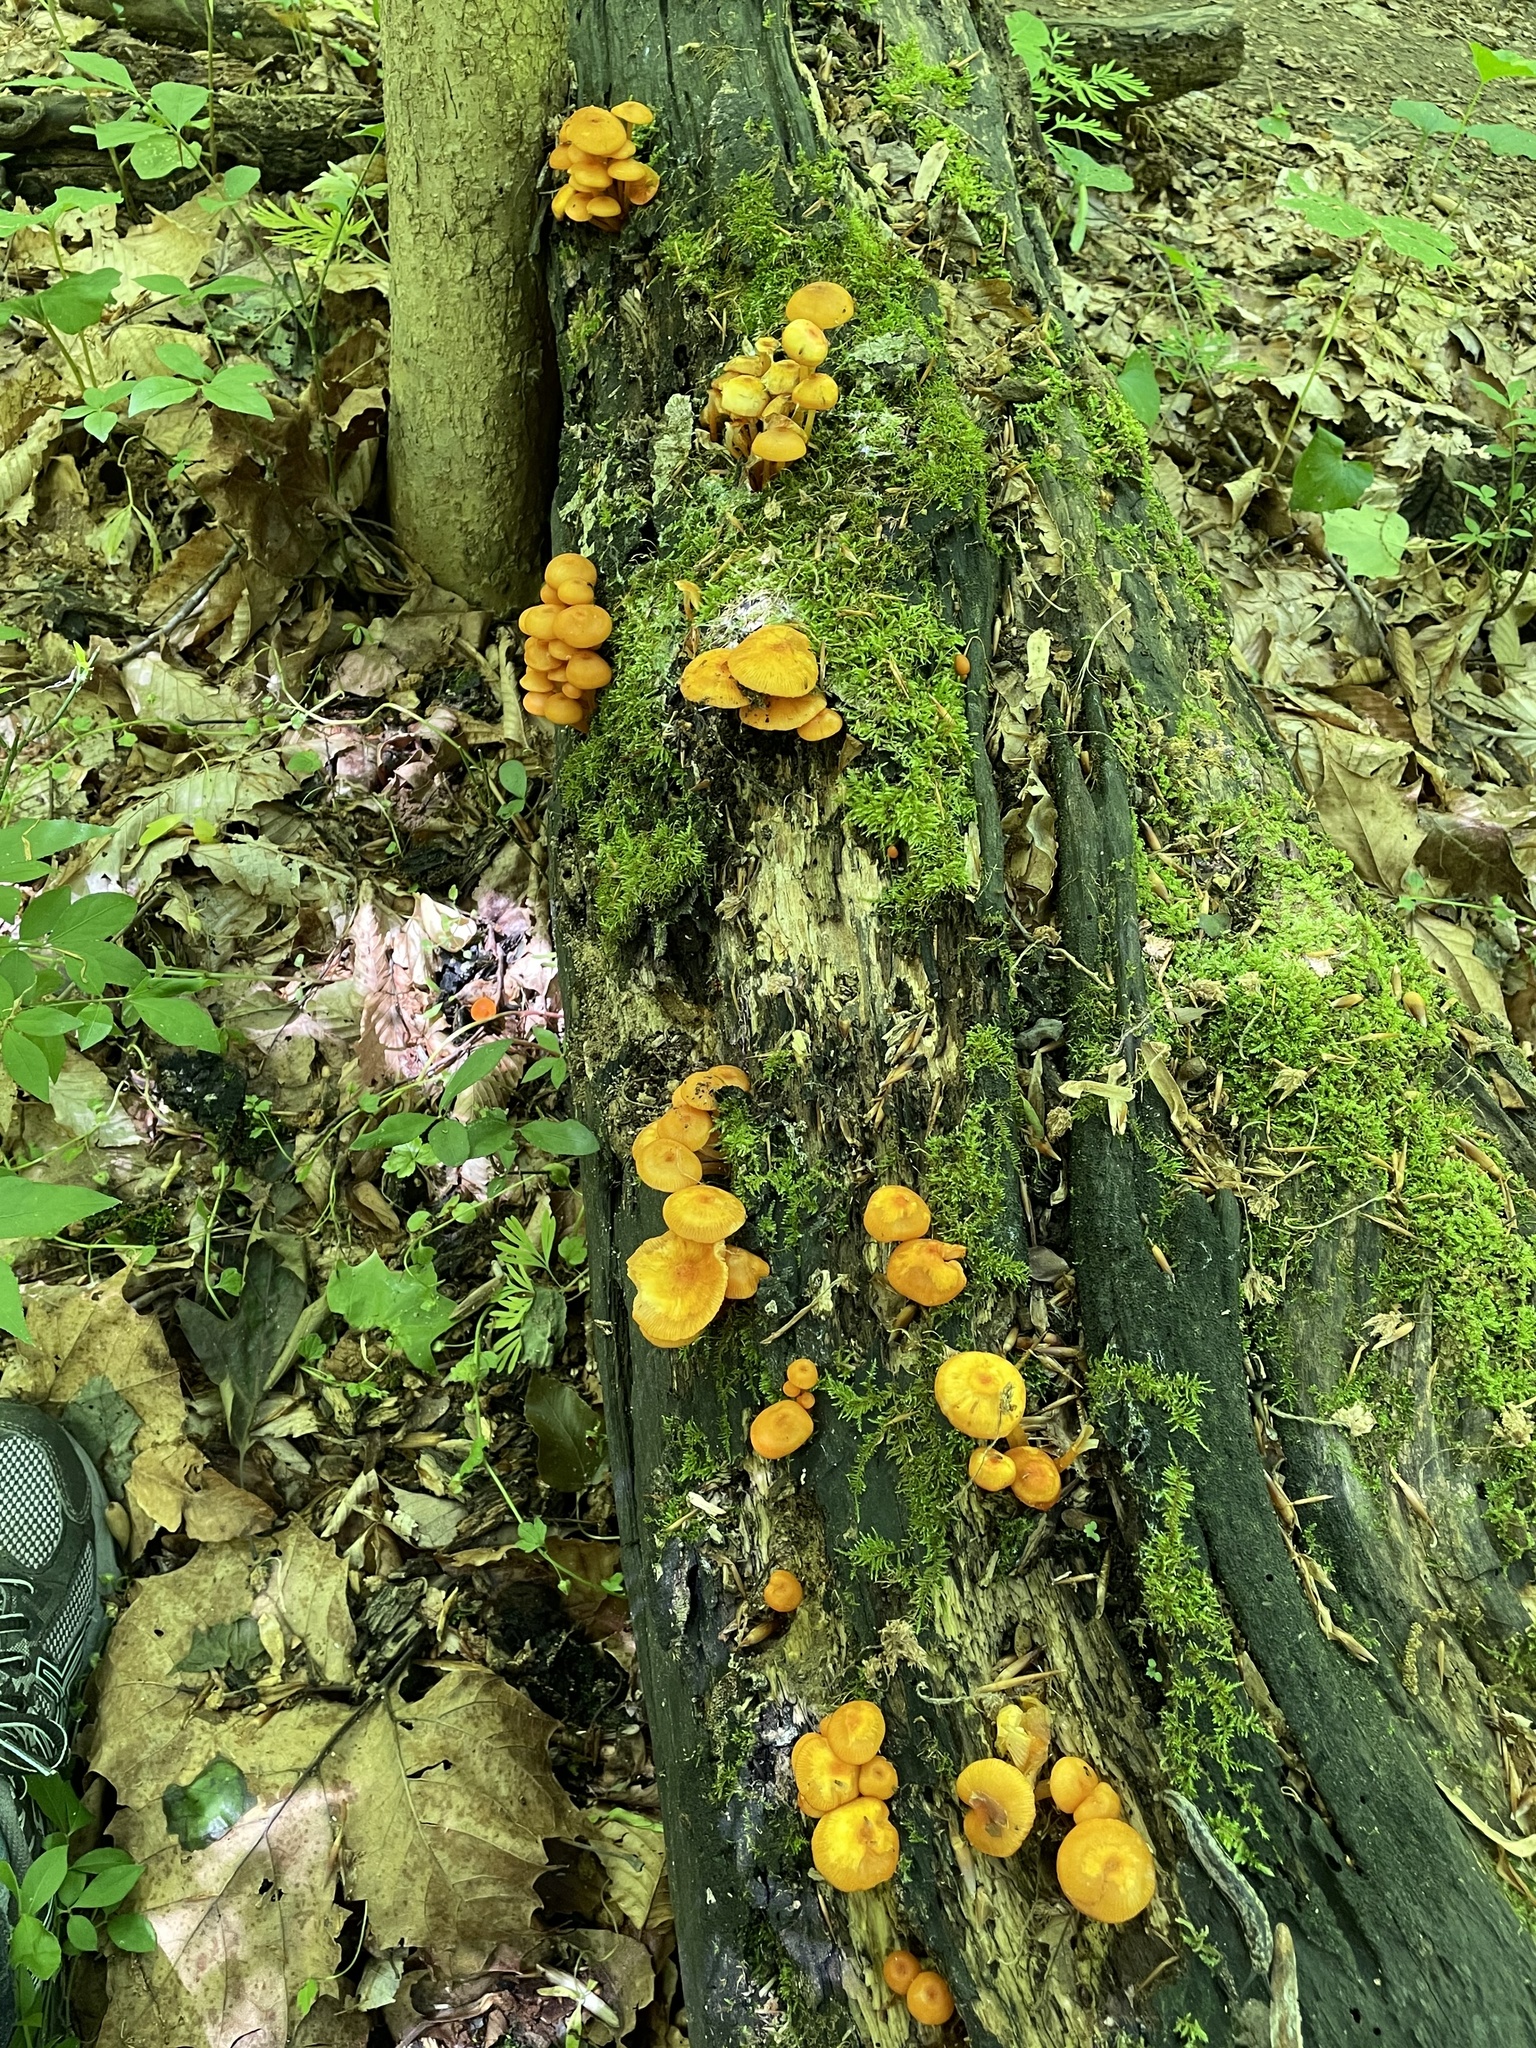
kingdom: Fungi
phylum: Basidiomycota
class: Agaricomycetes
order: Agaricales
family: Mycenaceae
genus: Mycena
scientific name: Mycena leaiana
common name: Orange mycena
